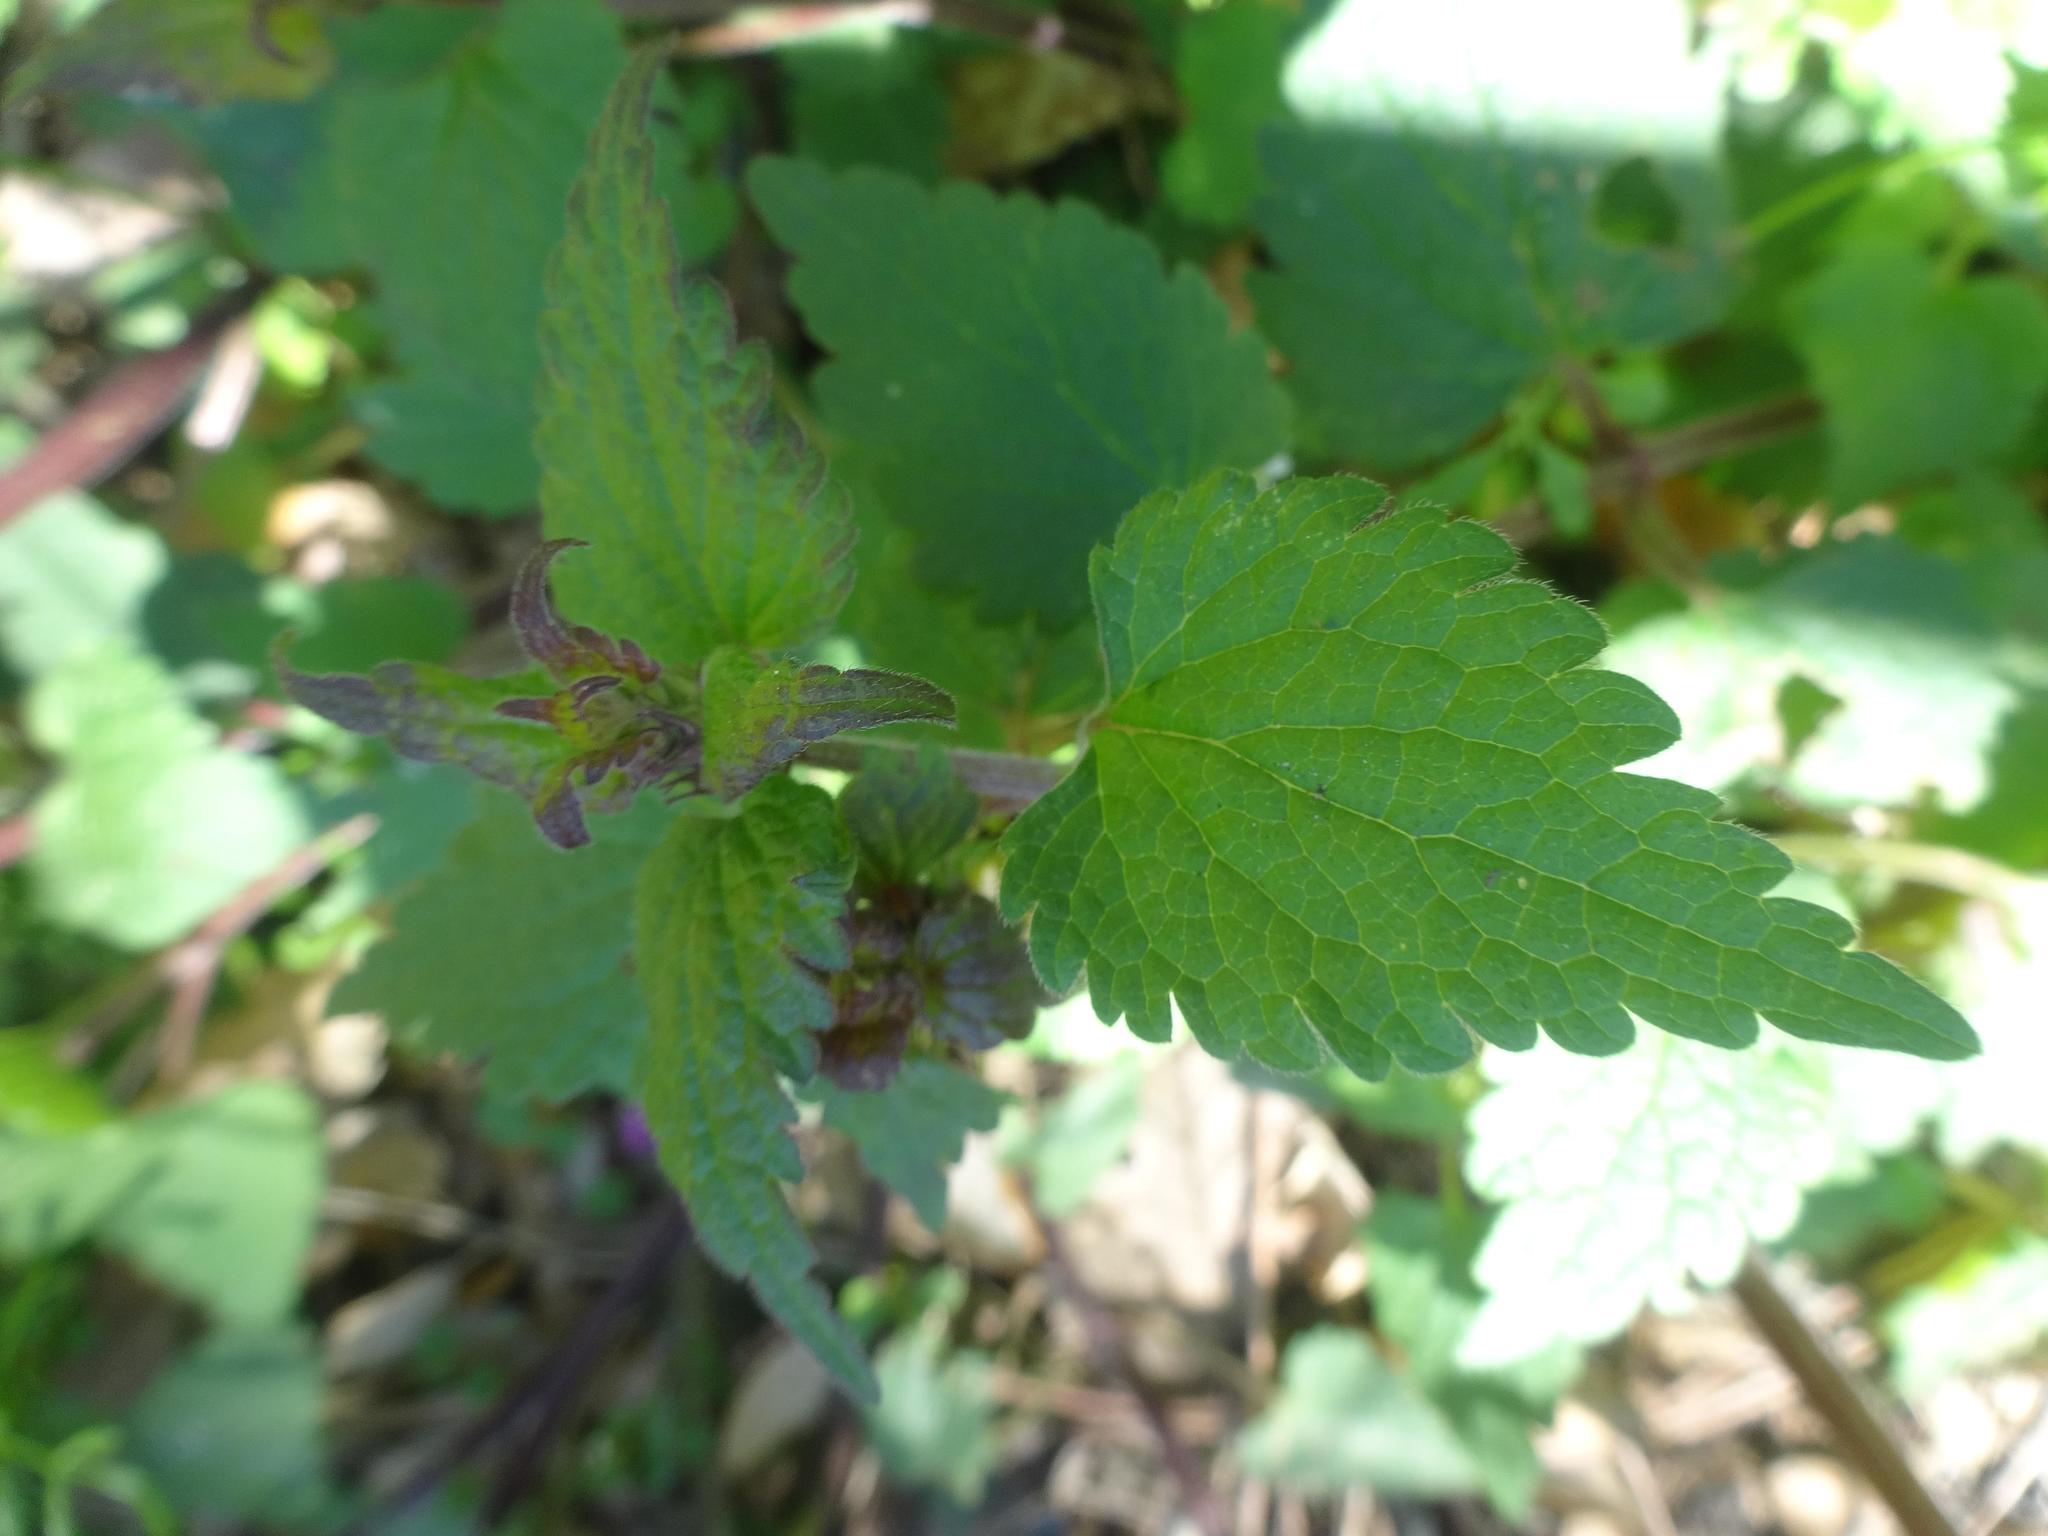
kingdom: Plantae
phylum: Tracheophyta
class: Magnoliopsida
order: Lamiales
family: Lamiaceae
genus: Lamium
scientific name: Lamium maculatum
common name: Spotted dead-nettle
